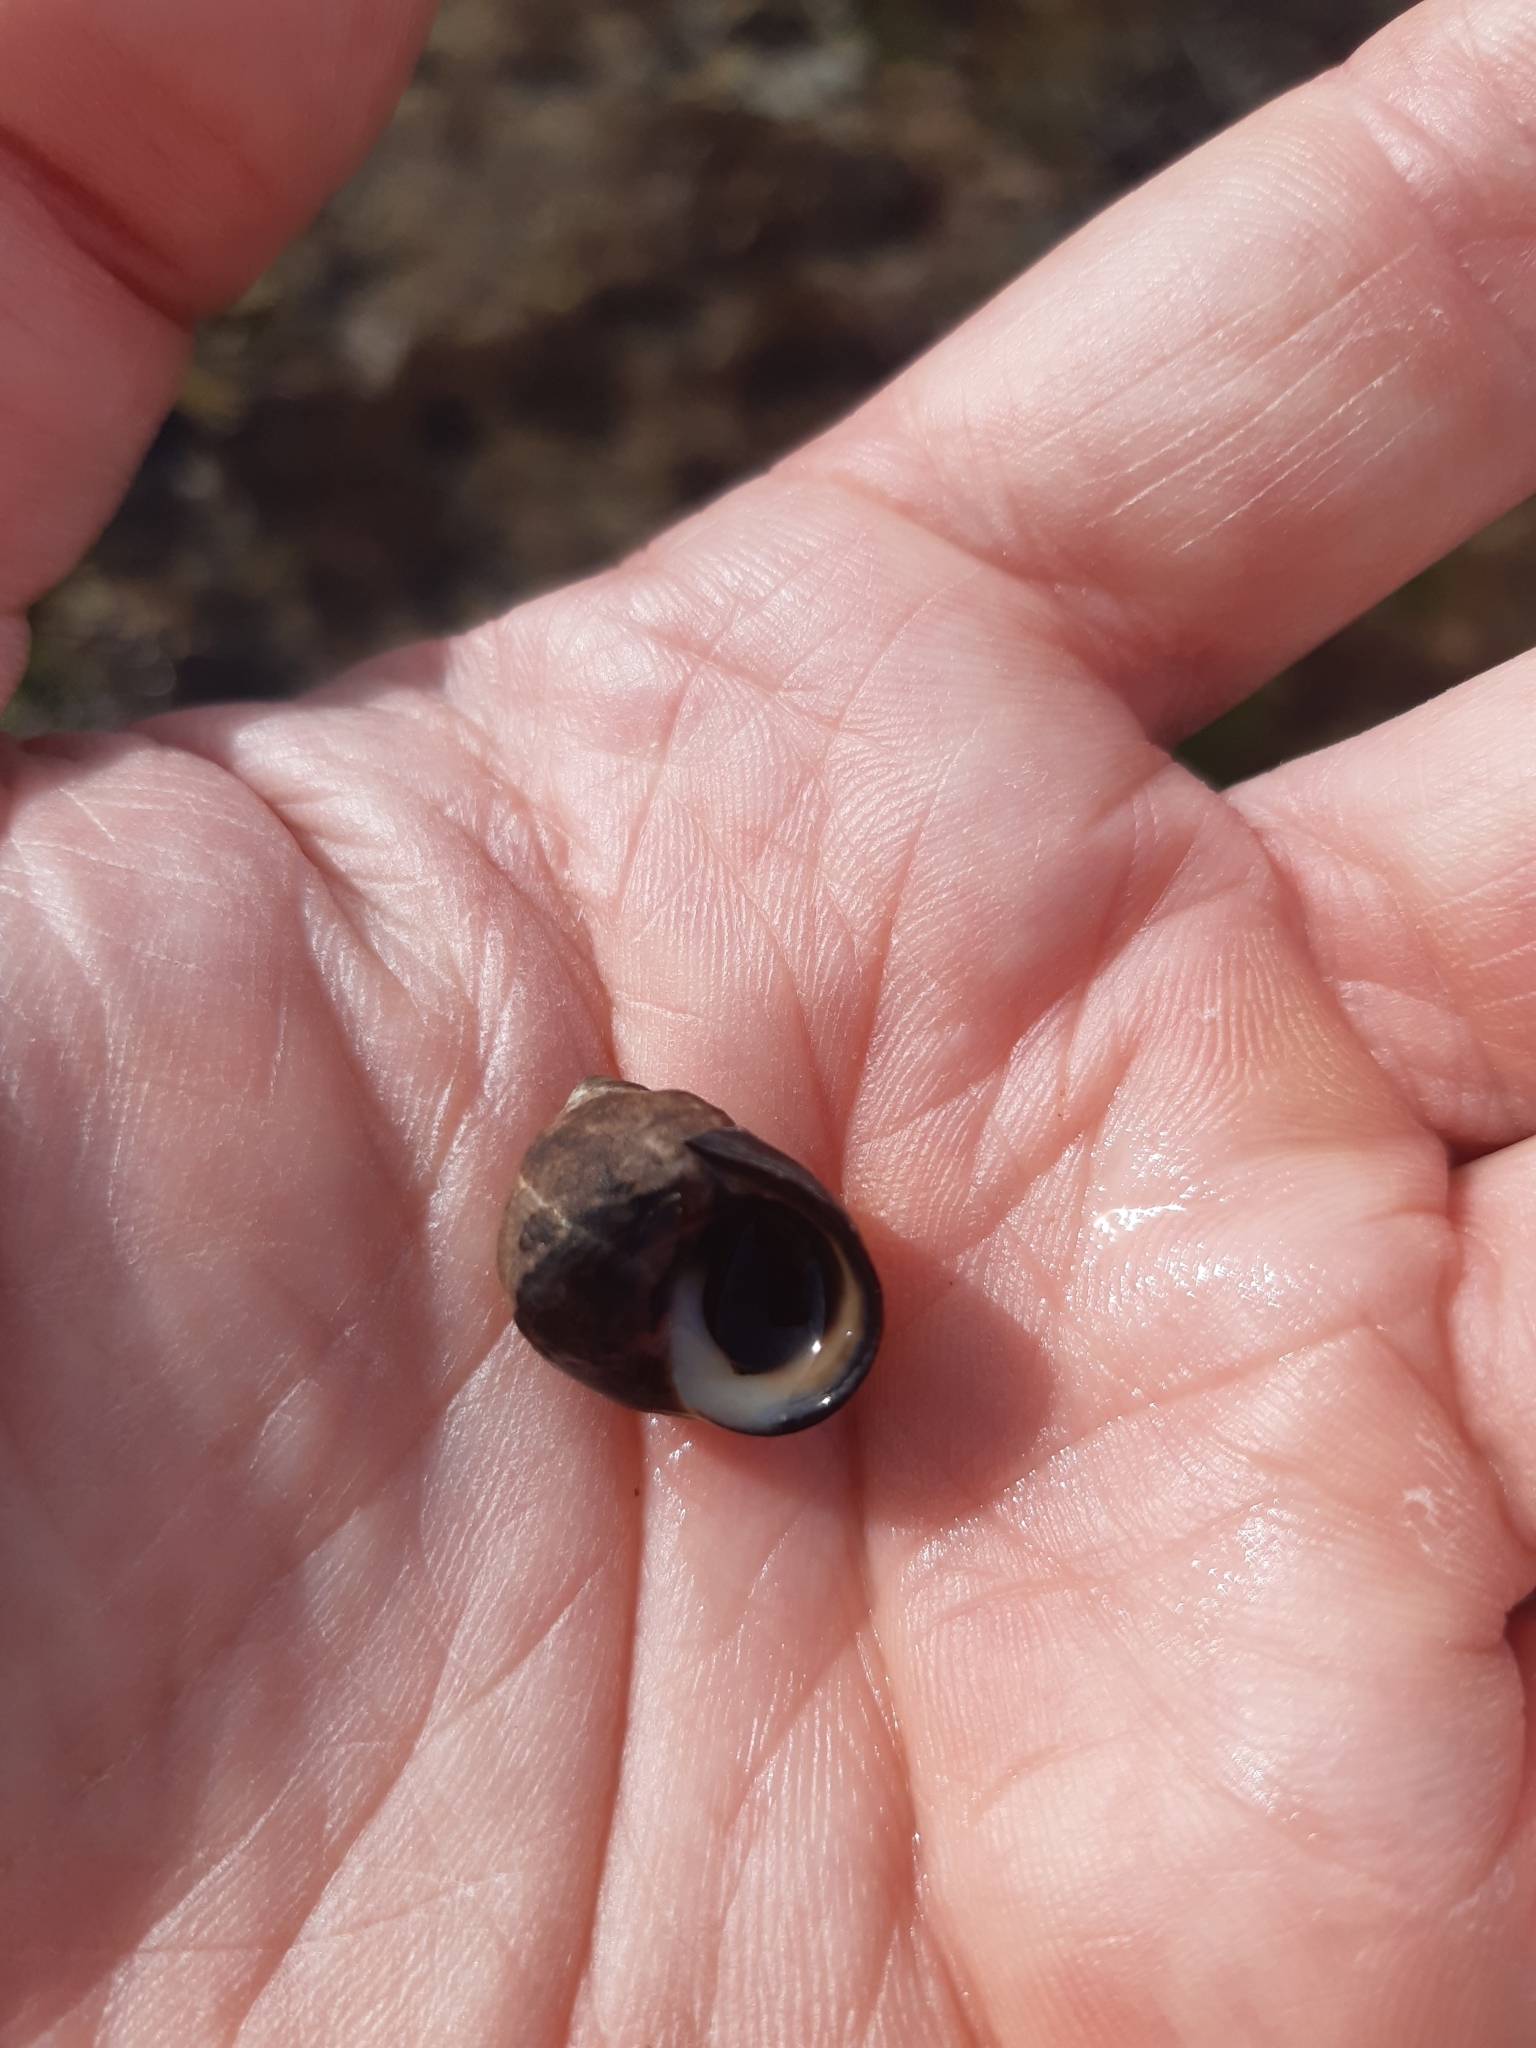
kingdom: Animalia
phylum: Mollusca
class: Gastropoda
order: Littorinimorpha
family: Littorinidae
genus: Littorina
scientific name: Littorina littorea
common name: Common periwinkle
